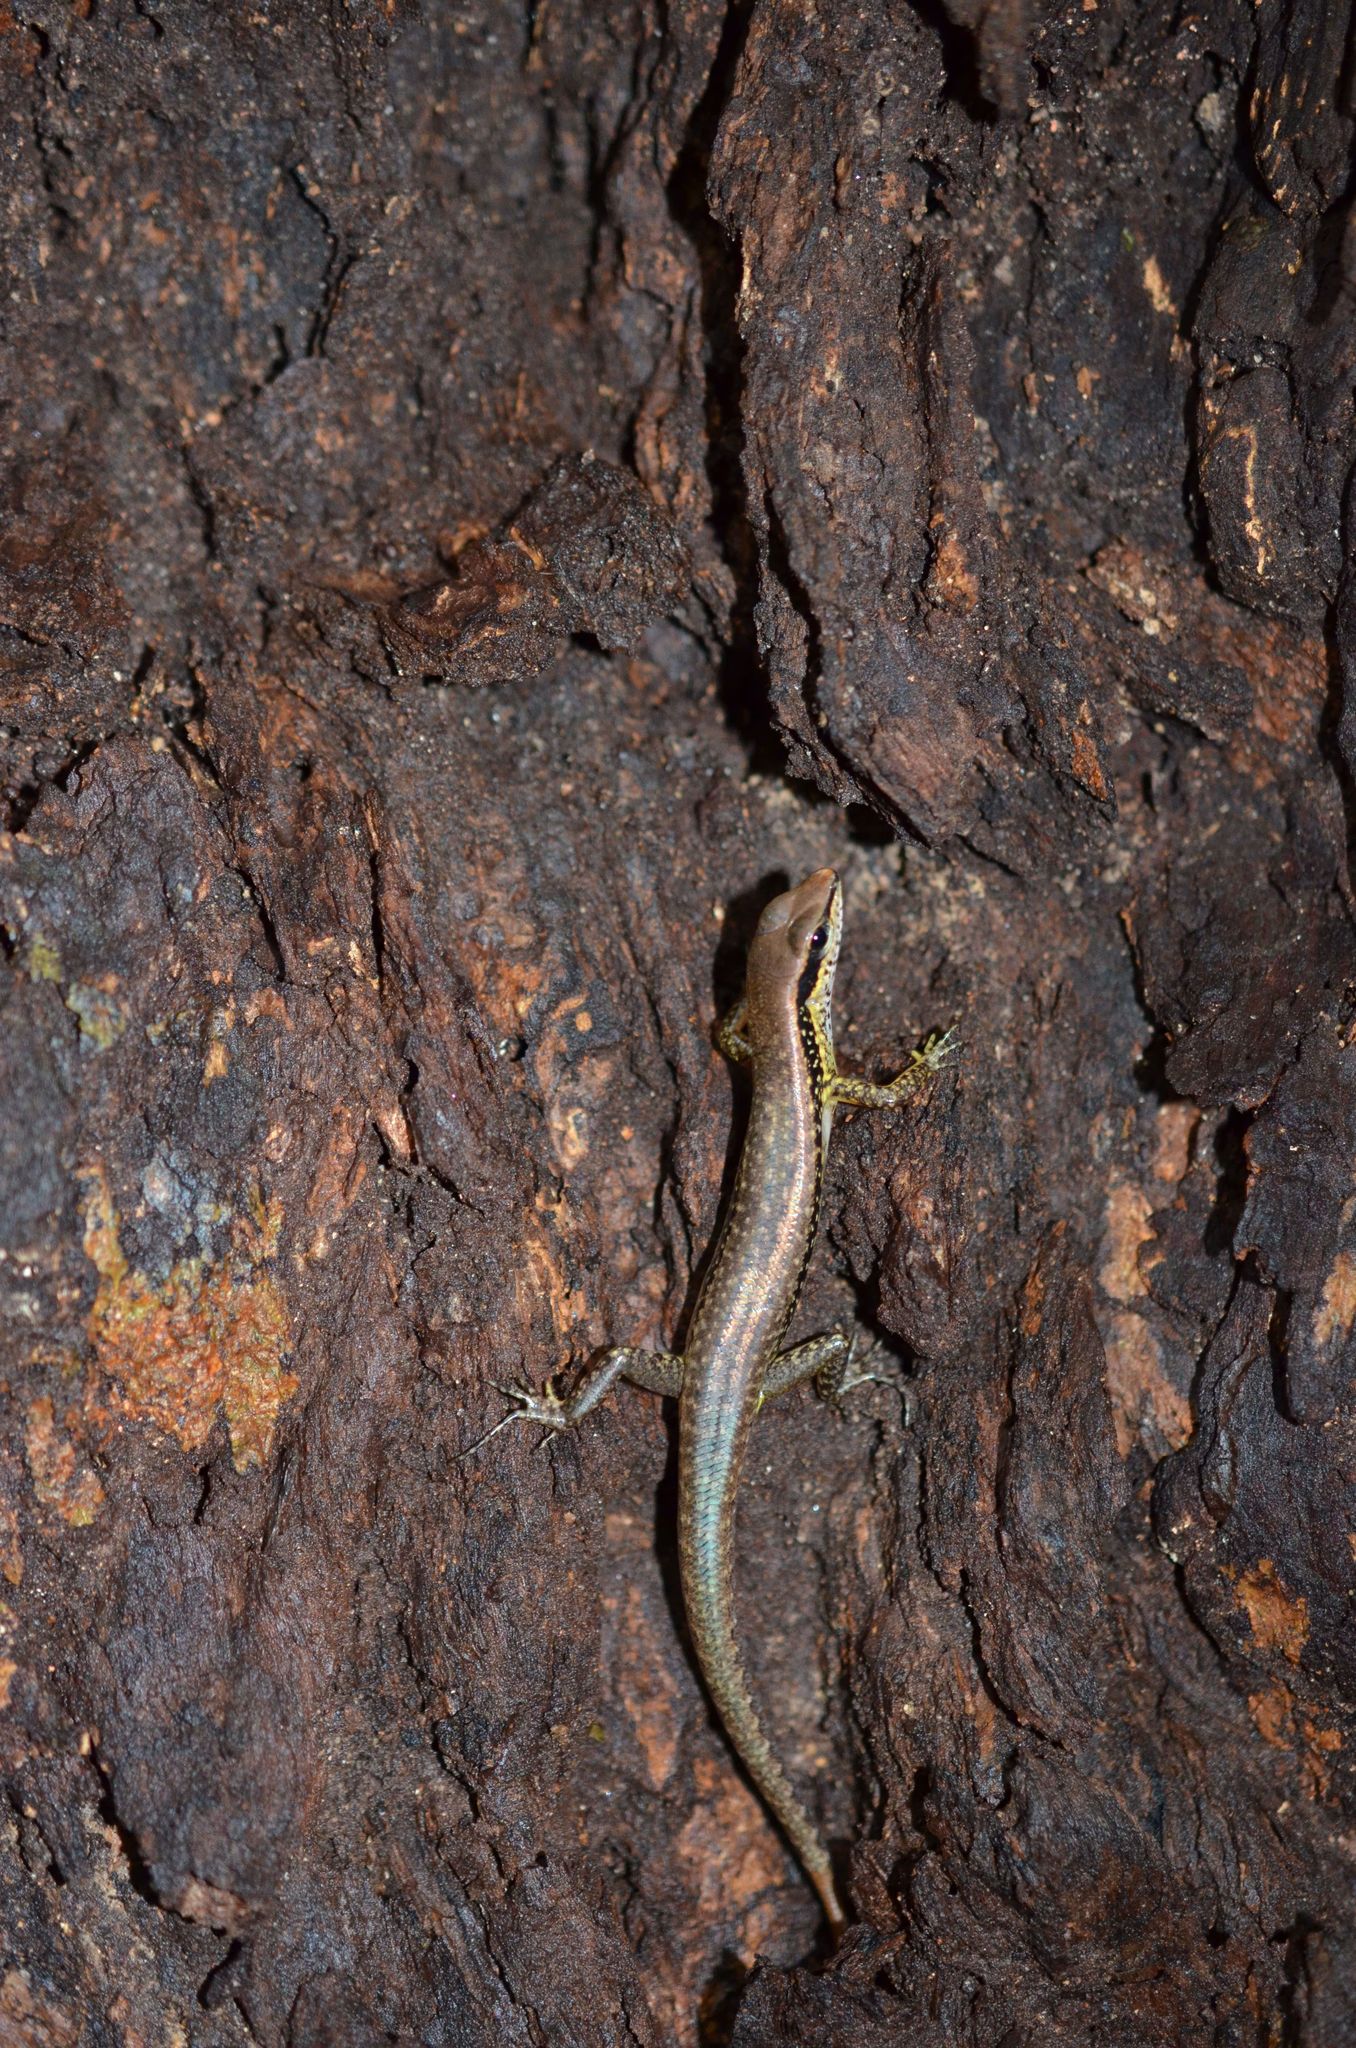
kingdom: Animalia
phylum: Chordata
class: Squamata
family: Scincidae
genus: Sphenomorphus
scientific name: Sphenomorphus maculatus
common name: Maculated forest skink
